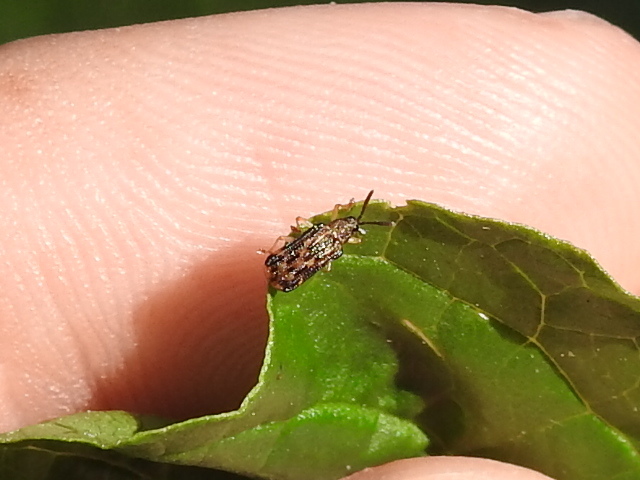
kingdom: Animalia
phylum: Arthropoda
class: Insecta
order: Coleoptera
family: Chrysomelidae
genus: Sumitrosis
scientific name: Sumitrosis inaequalis
